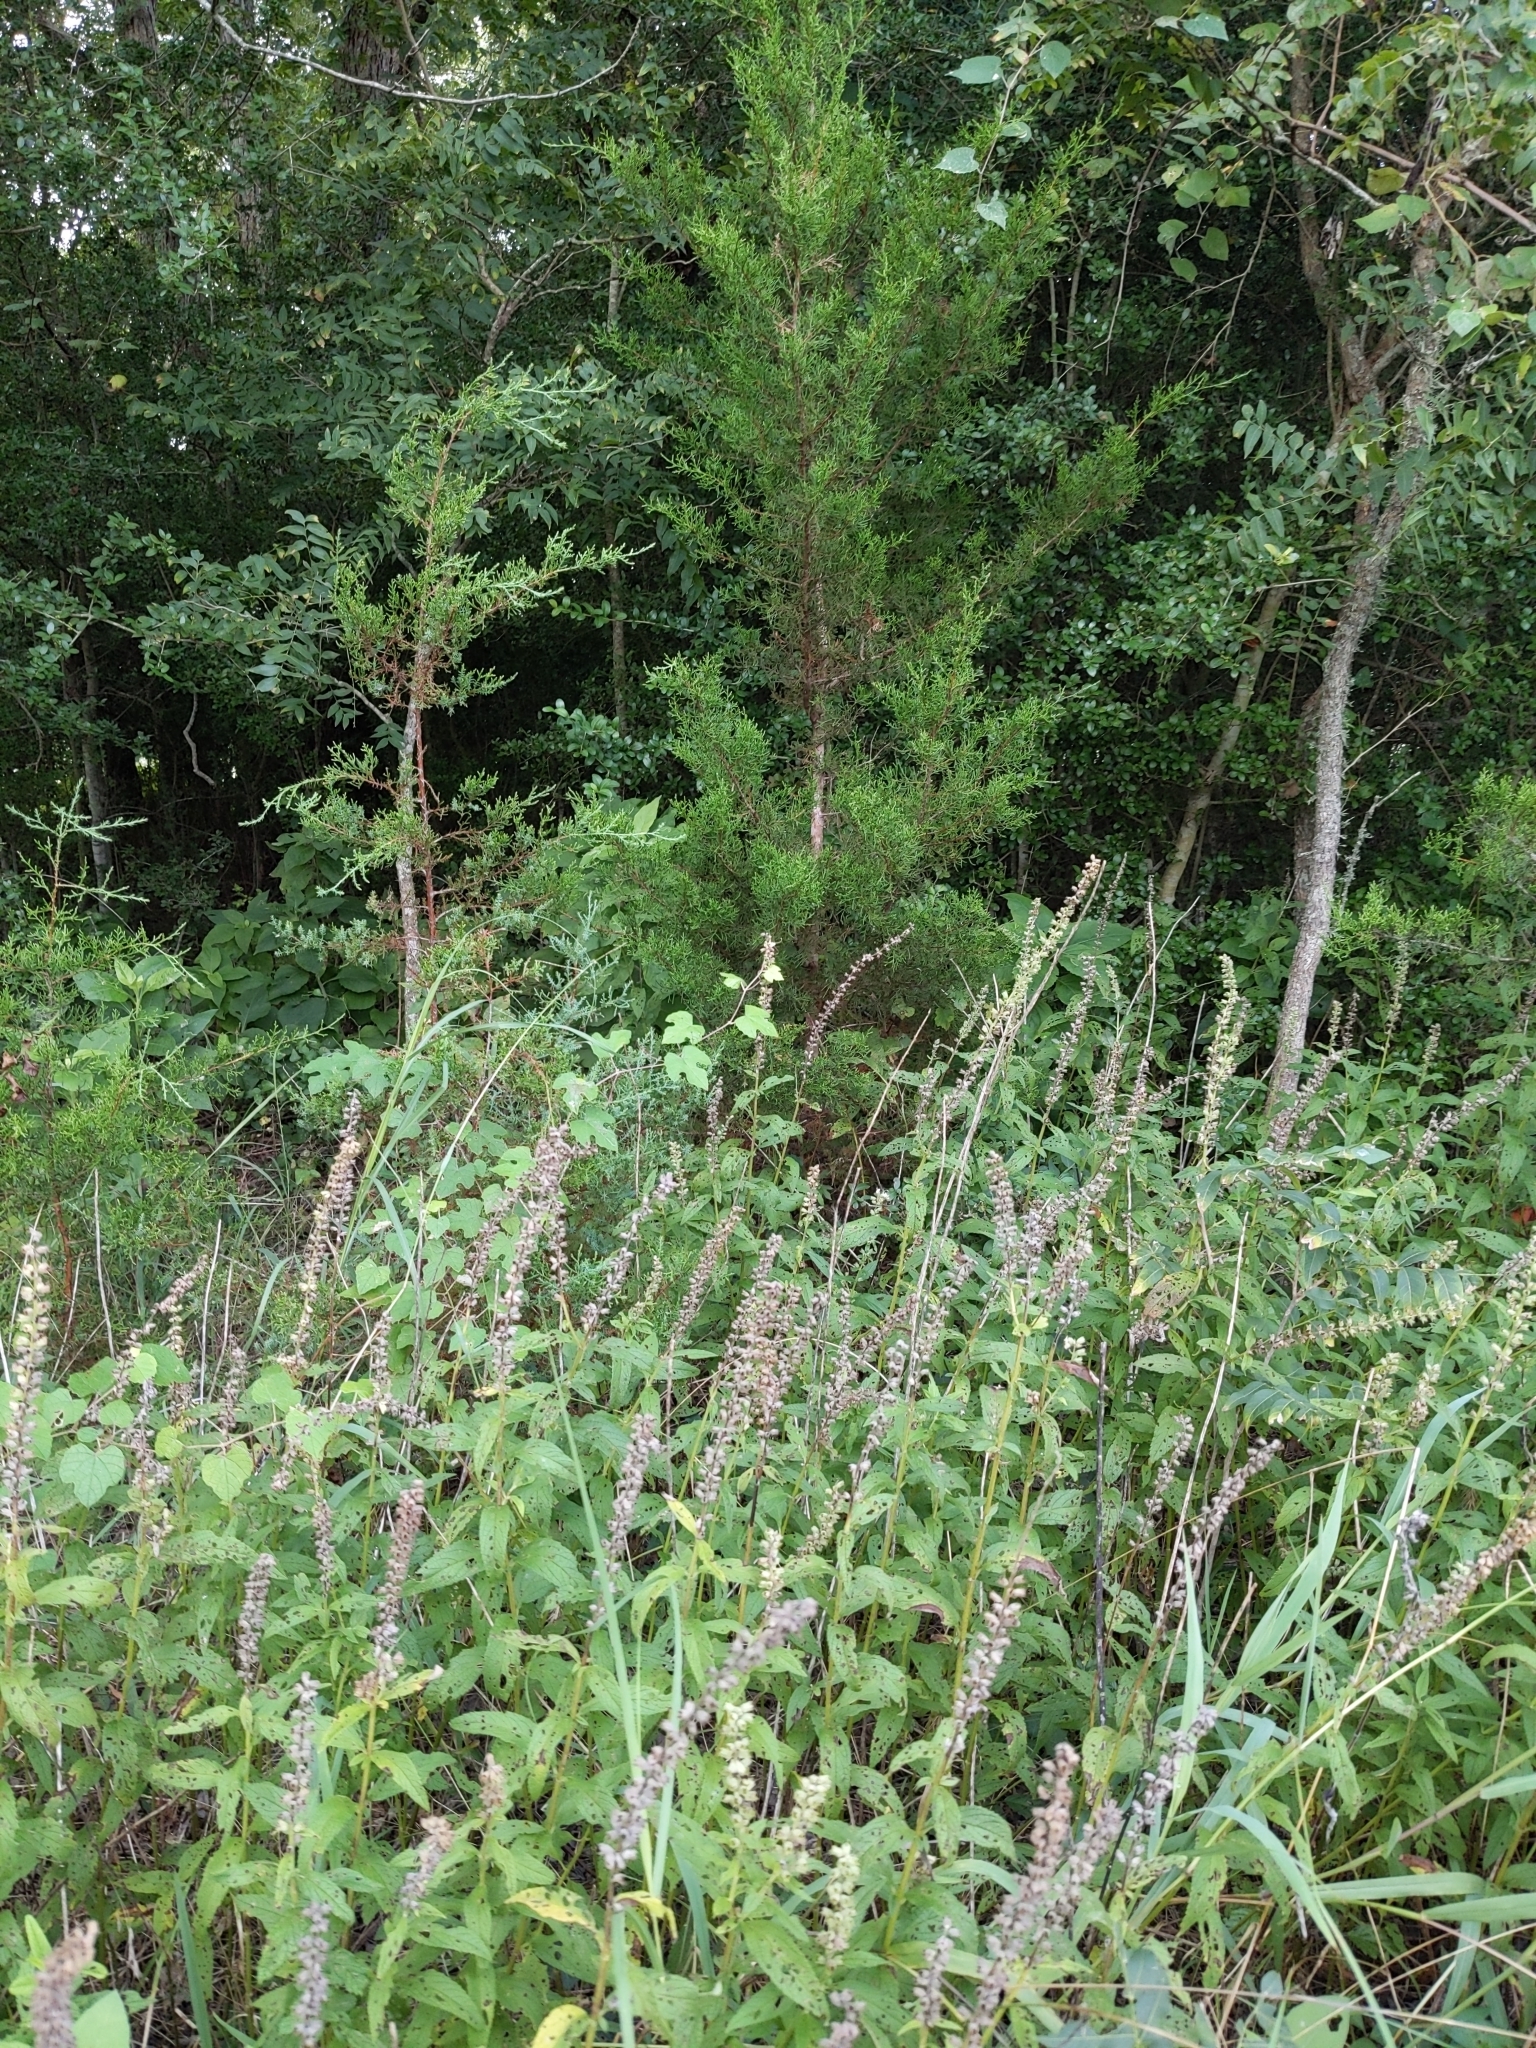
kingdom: Plantae
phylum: Tracheophyta
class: Magnoliopsida
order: Lamiales
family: Lamiaceae
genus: Teucrium
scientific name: Teucrium canadense
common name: American germander
